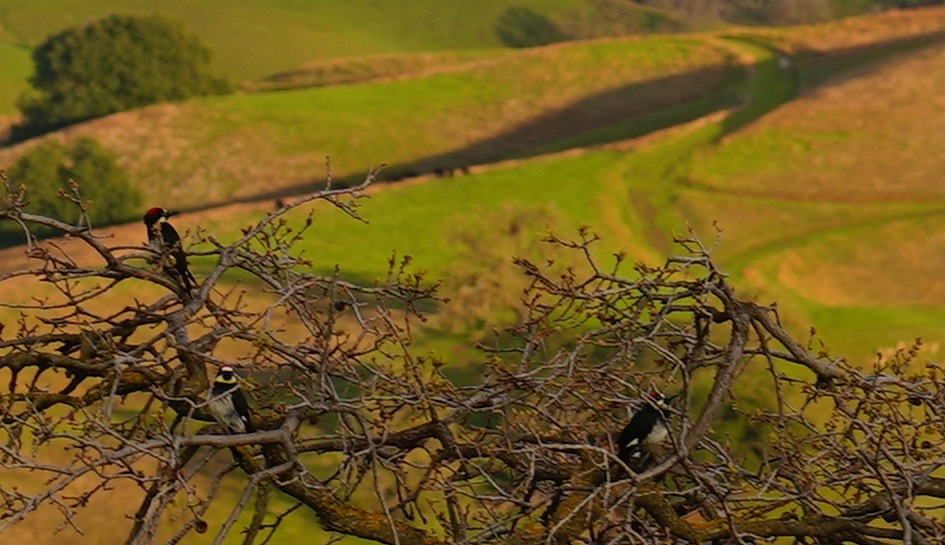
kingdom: Animalia
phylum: Chordata
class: Aves
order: Piciformes
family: Picidae
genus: Melanerpes
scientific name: Melanerpes formicivorus
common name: Acorn woodpecker
